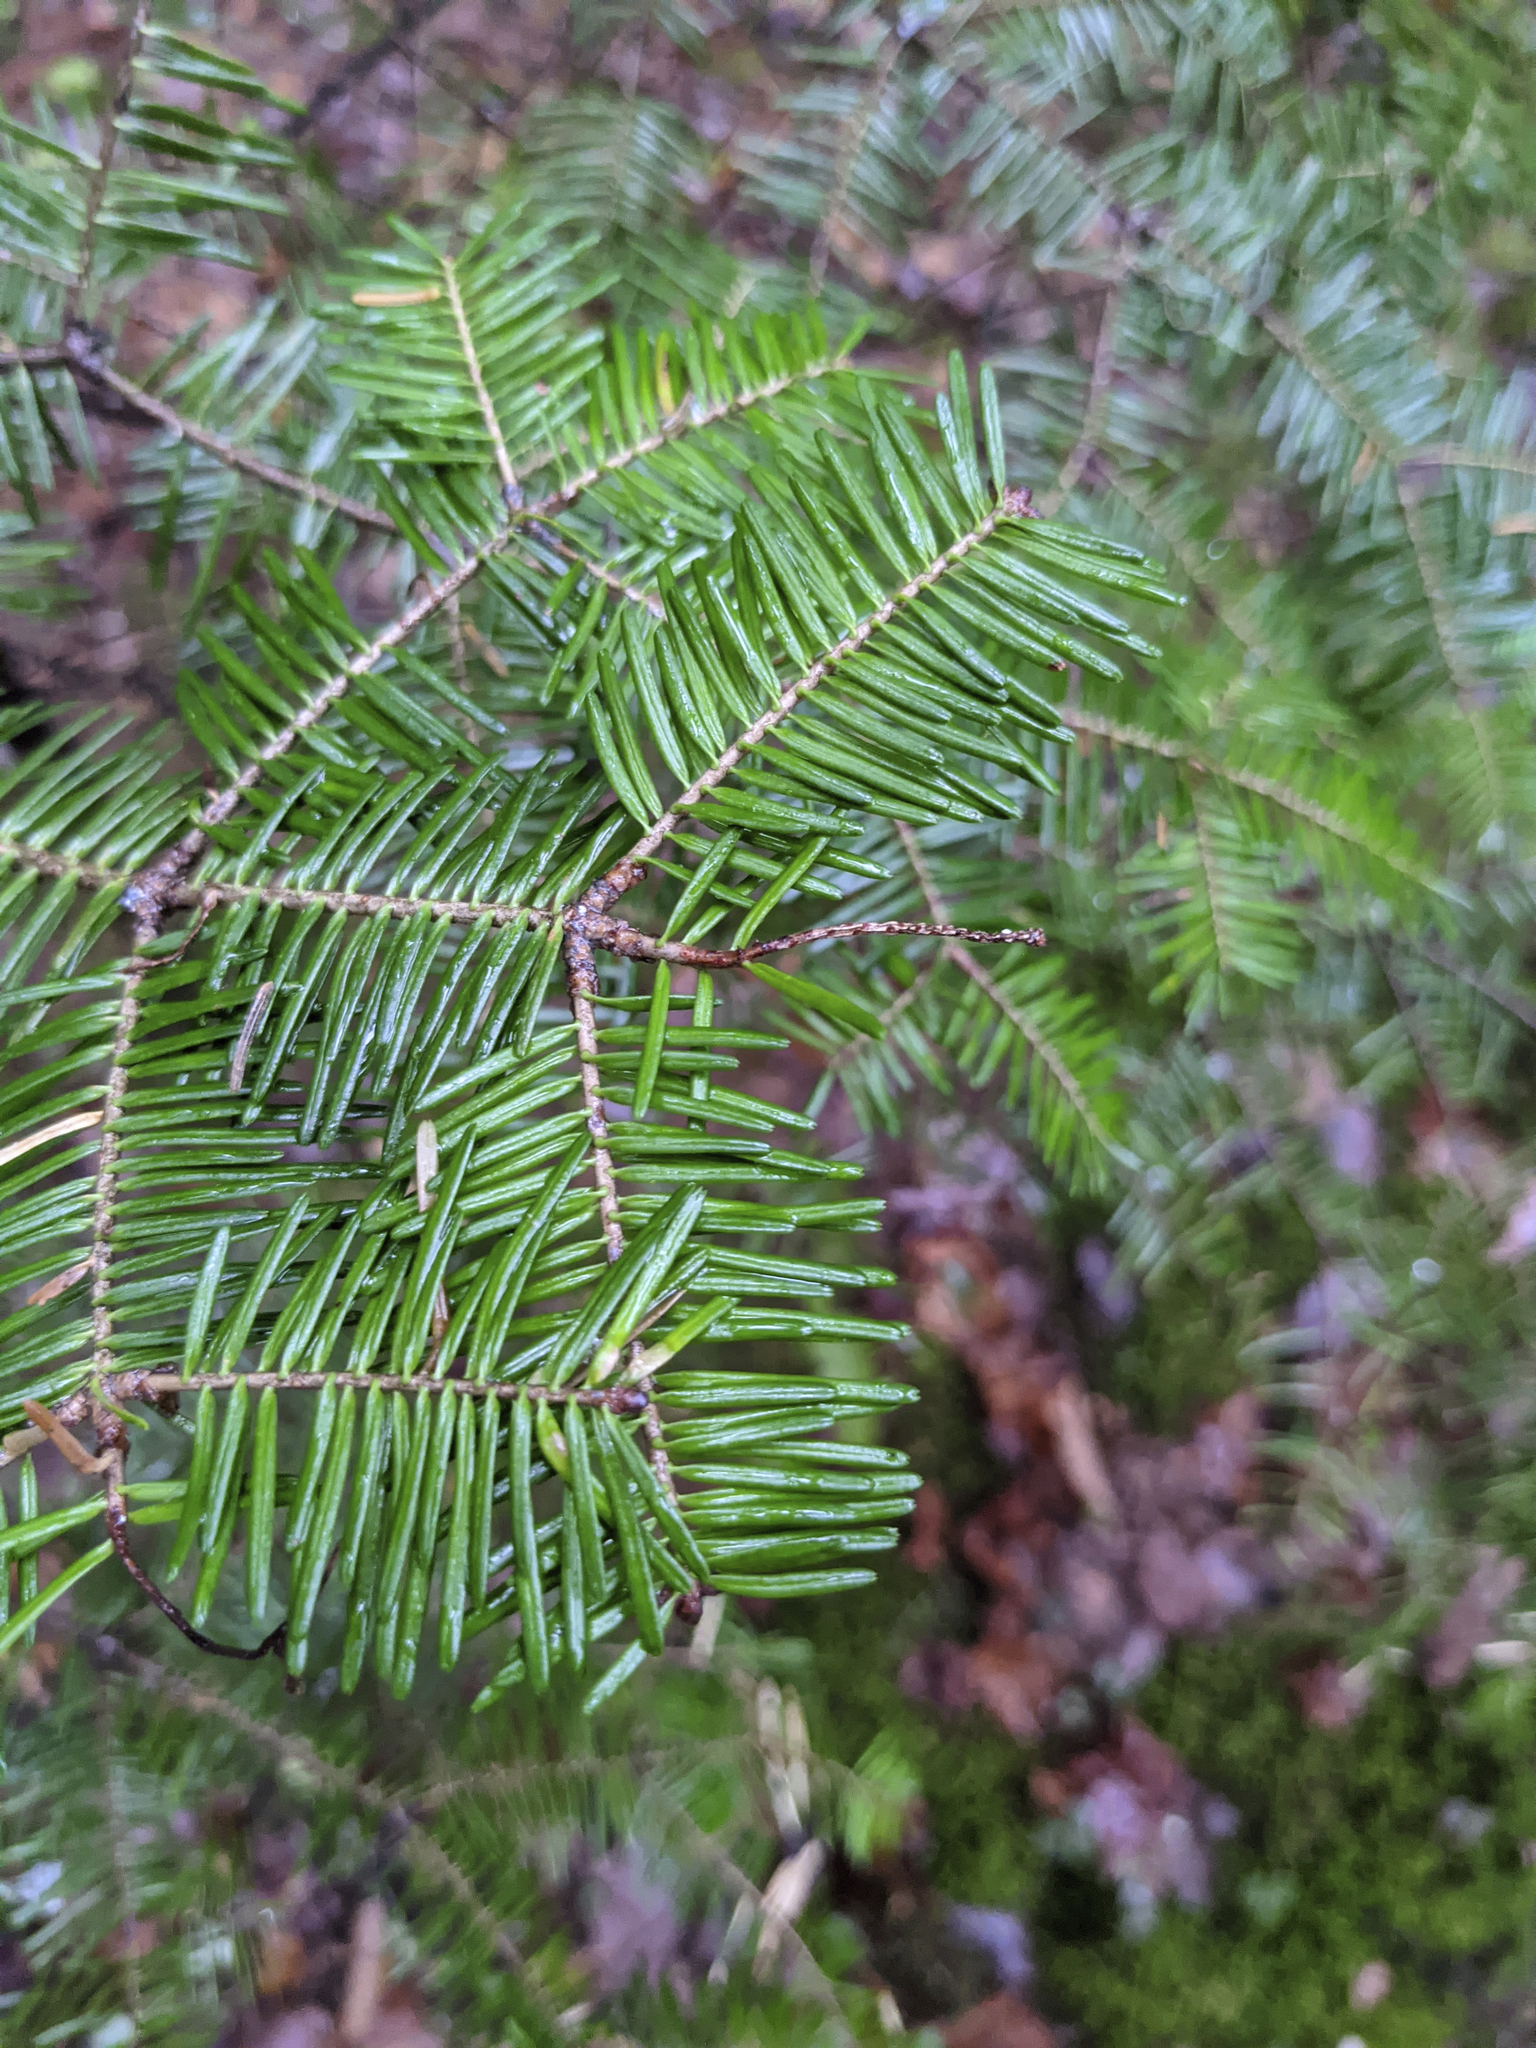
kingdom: Plantae
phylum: Tracheophyta
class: Pinopsida
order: Pinales
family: Pinaceae
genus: Abies
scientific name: Abies balsamea
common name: Balsam fir
